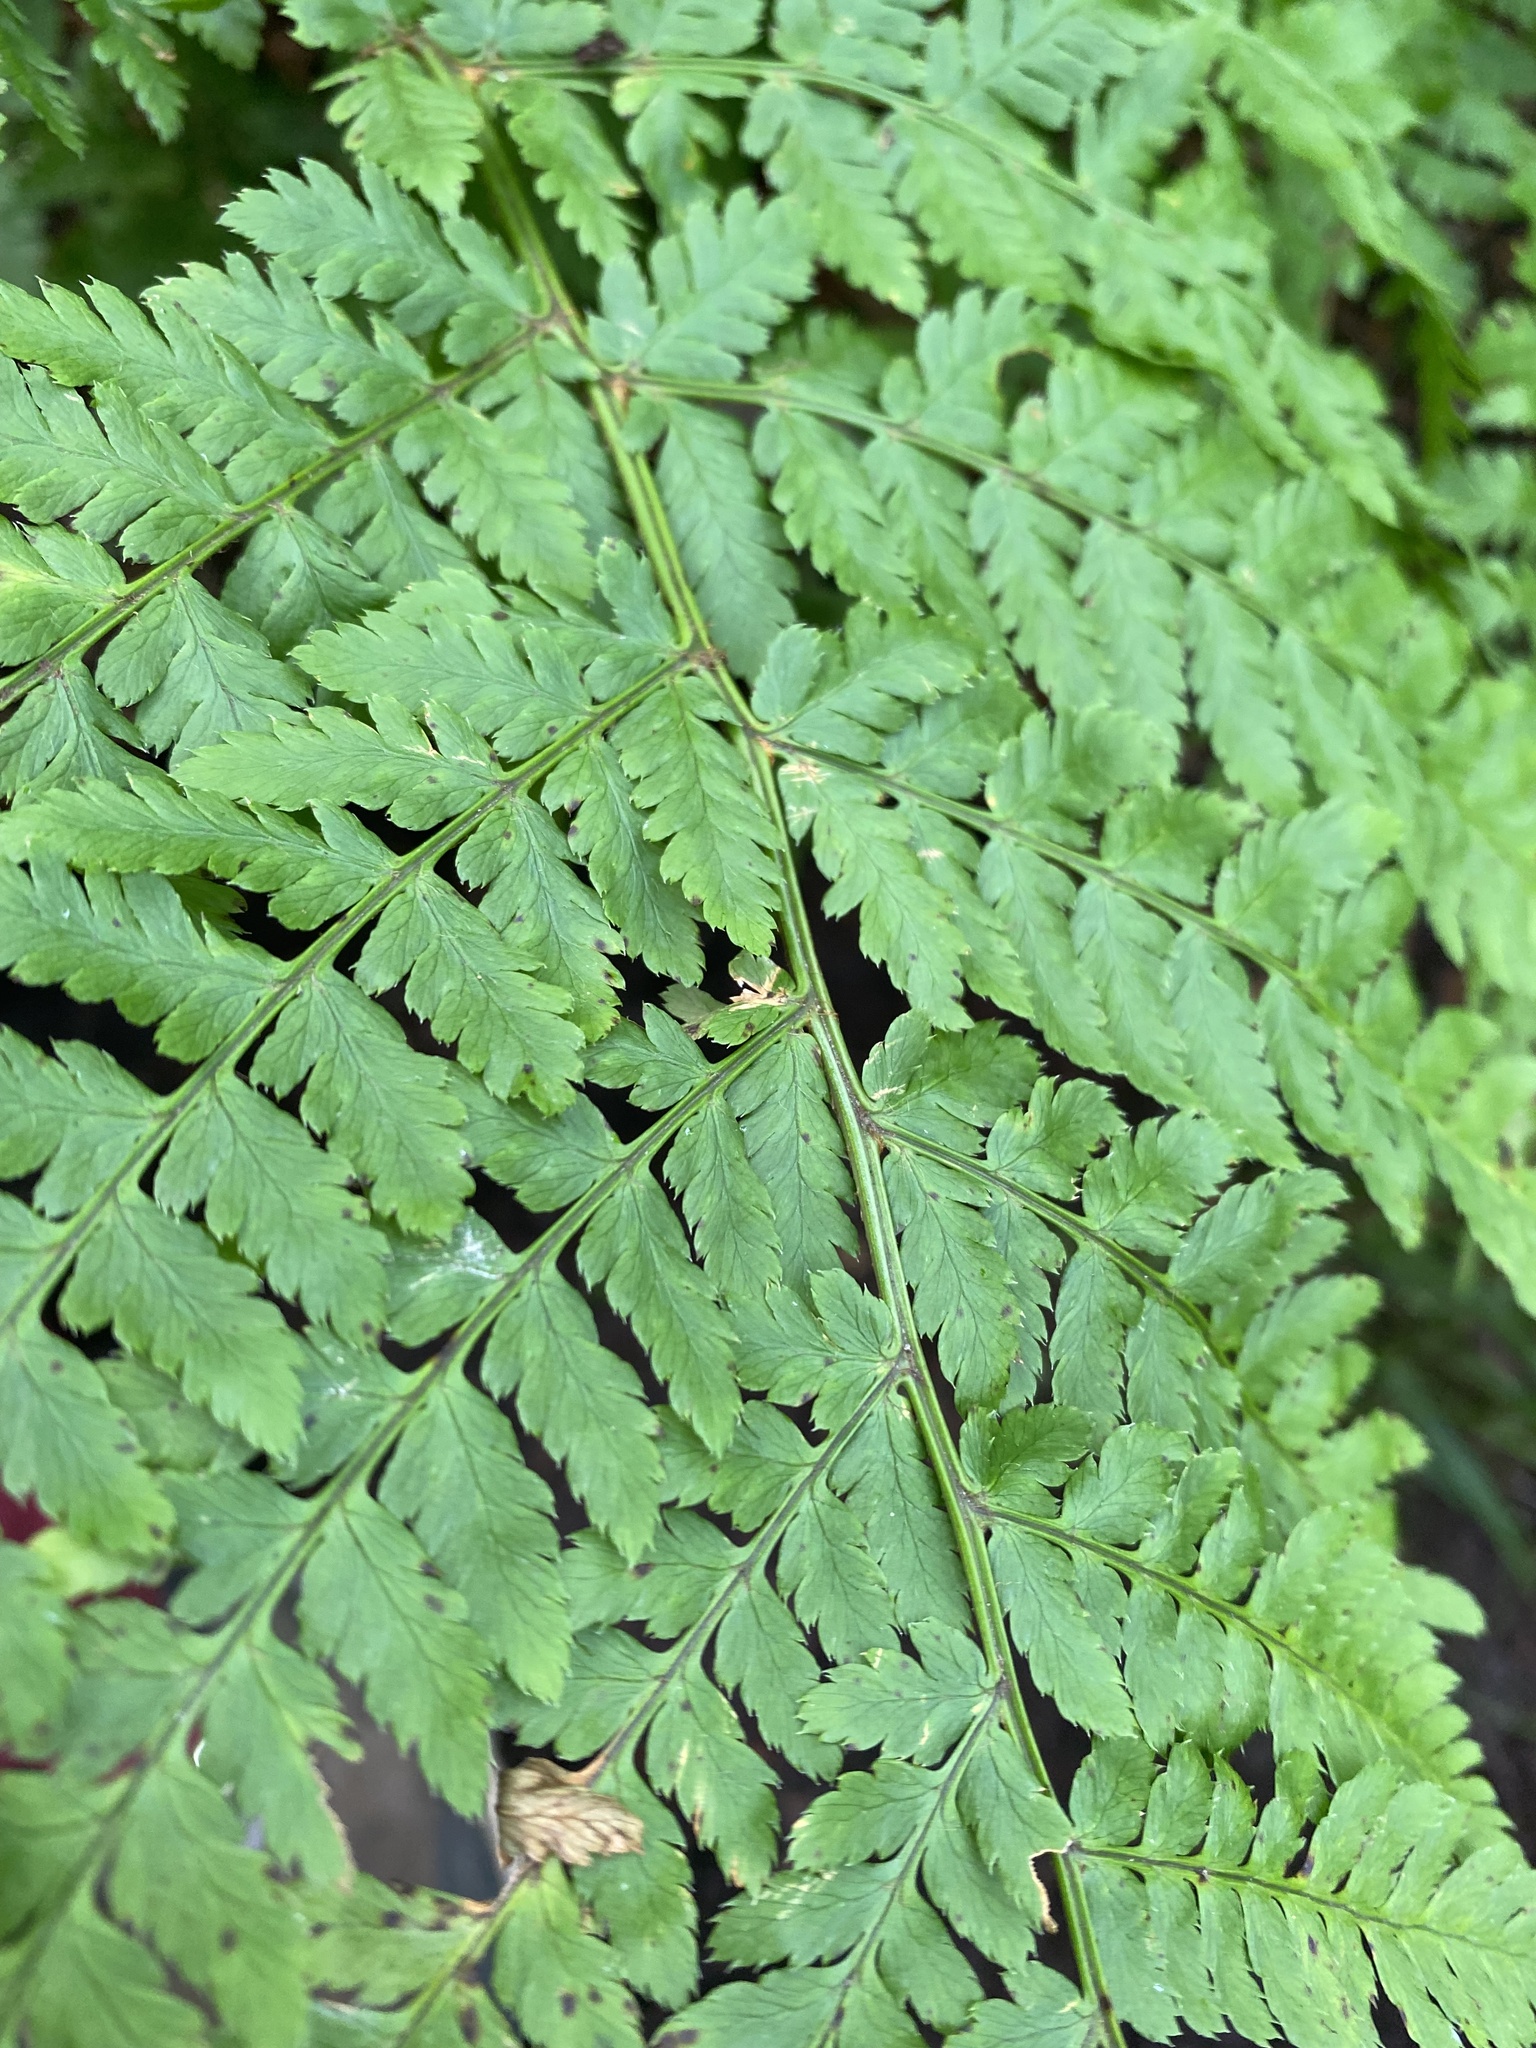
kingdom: Plantae
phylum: Tracheophyta
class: Polypodiopsida
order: Polypodiales
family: Dryopteridaceae
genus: Dryopteris
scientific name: Dryopteris expansa
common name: Northern buckler fern
